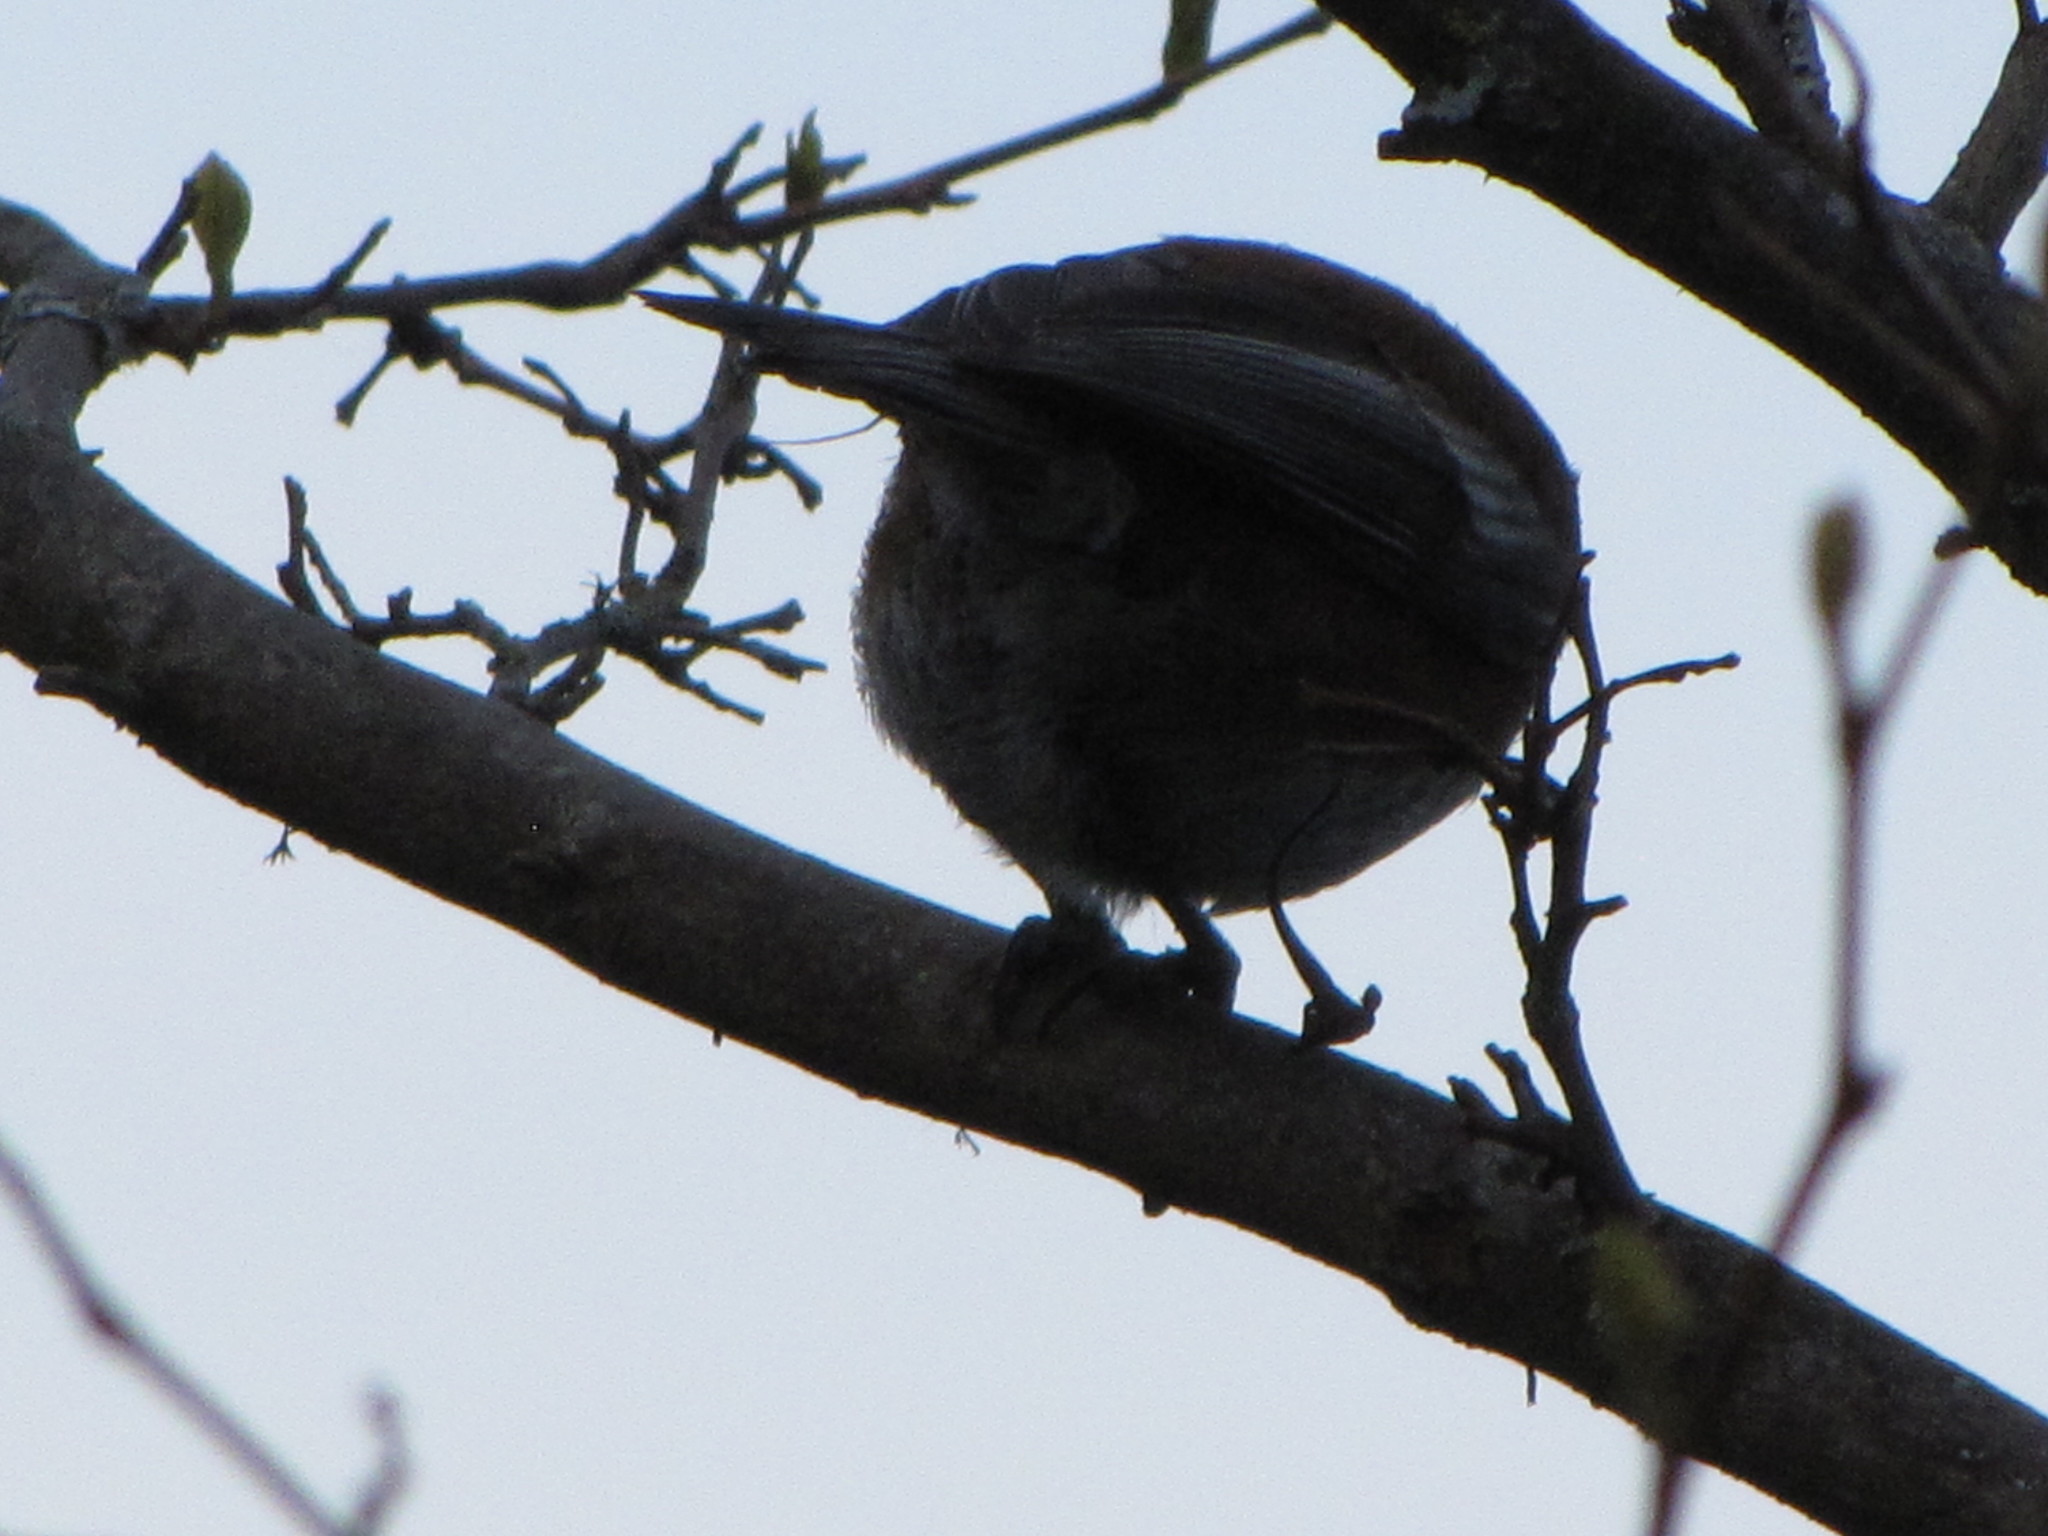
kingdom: Animalia
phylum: Chordata
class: Aves
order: Passeriformes
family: Paridae
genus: Poecile
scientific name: Poecile rufescens
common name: Chestnut-backed chickadee
